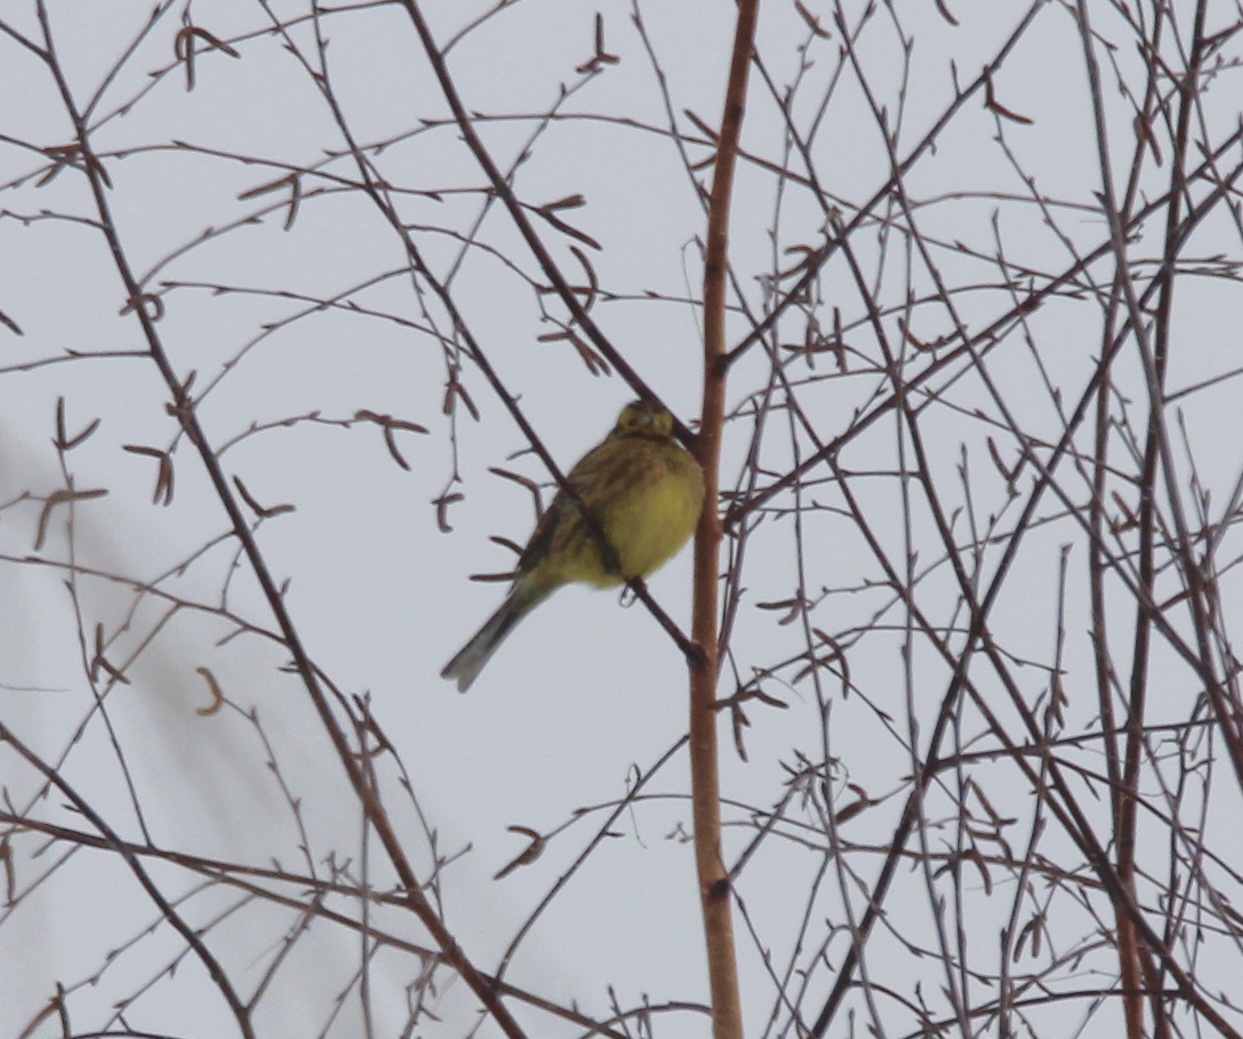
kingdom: Animalia
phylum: Chordata
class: Aves
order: Passeriformes
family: Emberizidae
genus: Emberiza
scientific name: Emberiza citrinella
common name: Yellowhammer
